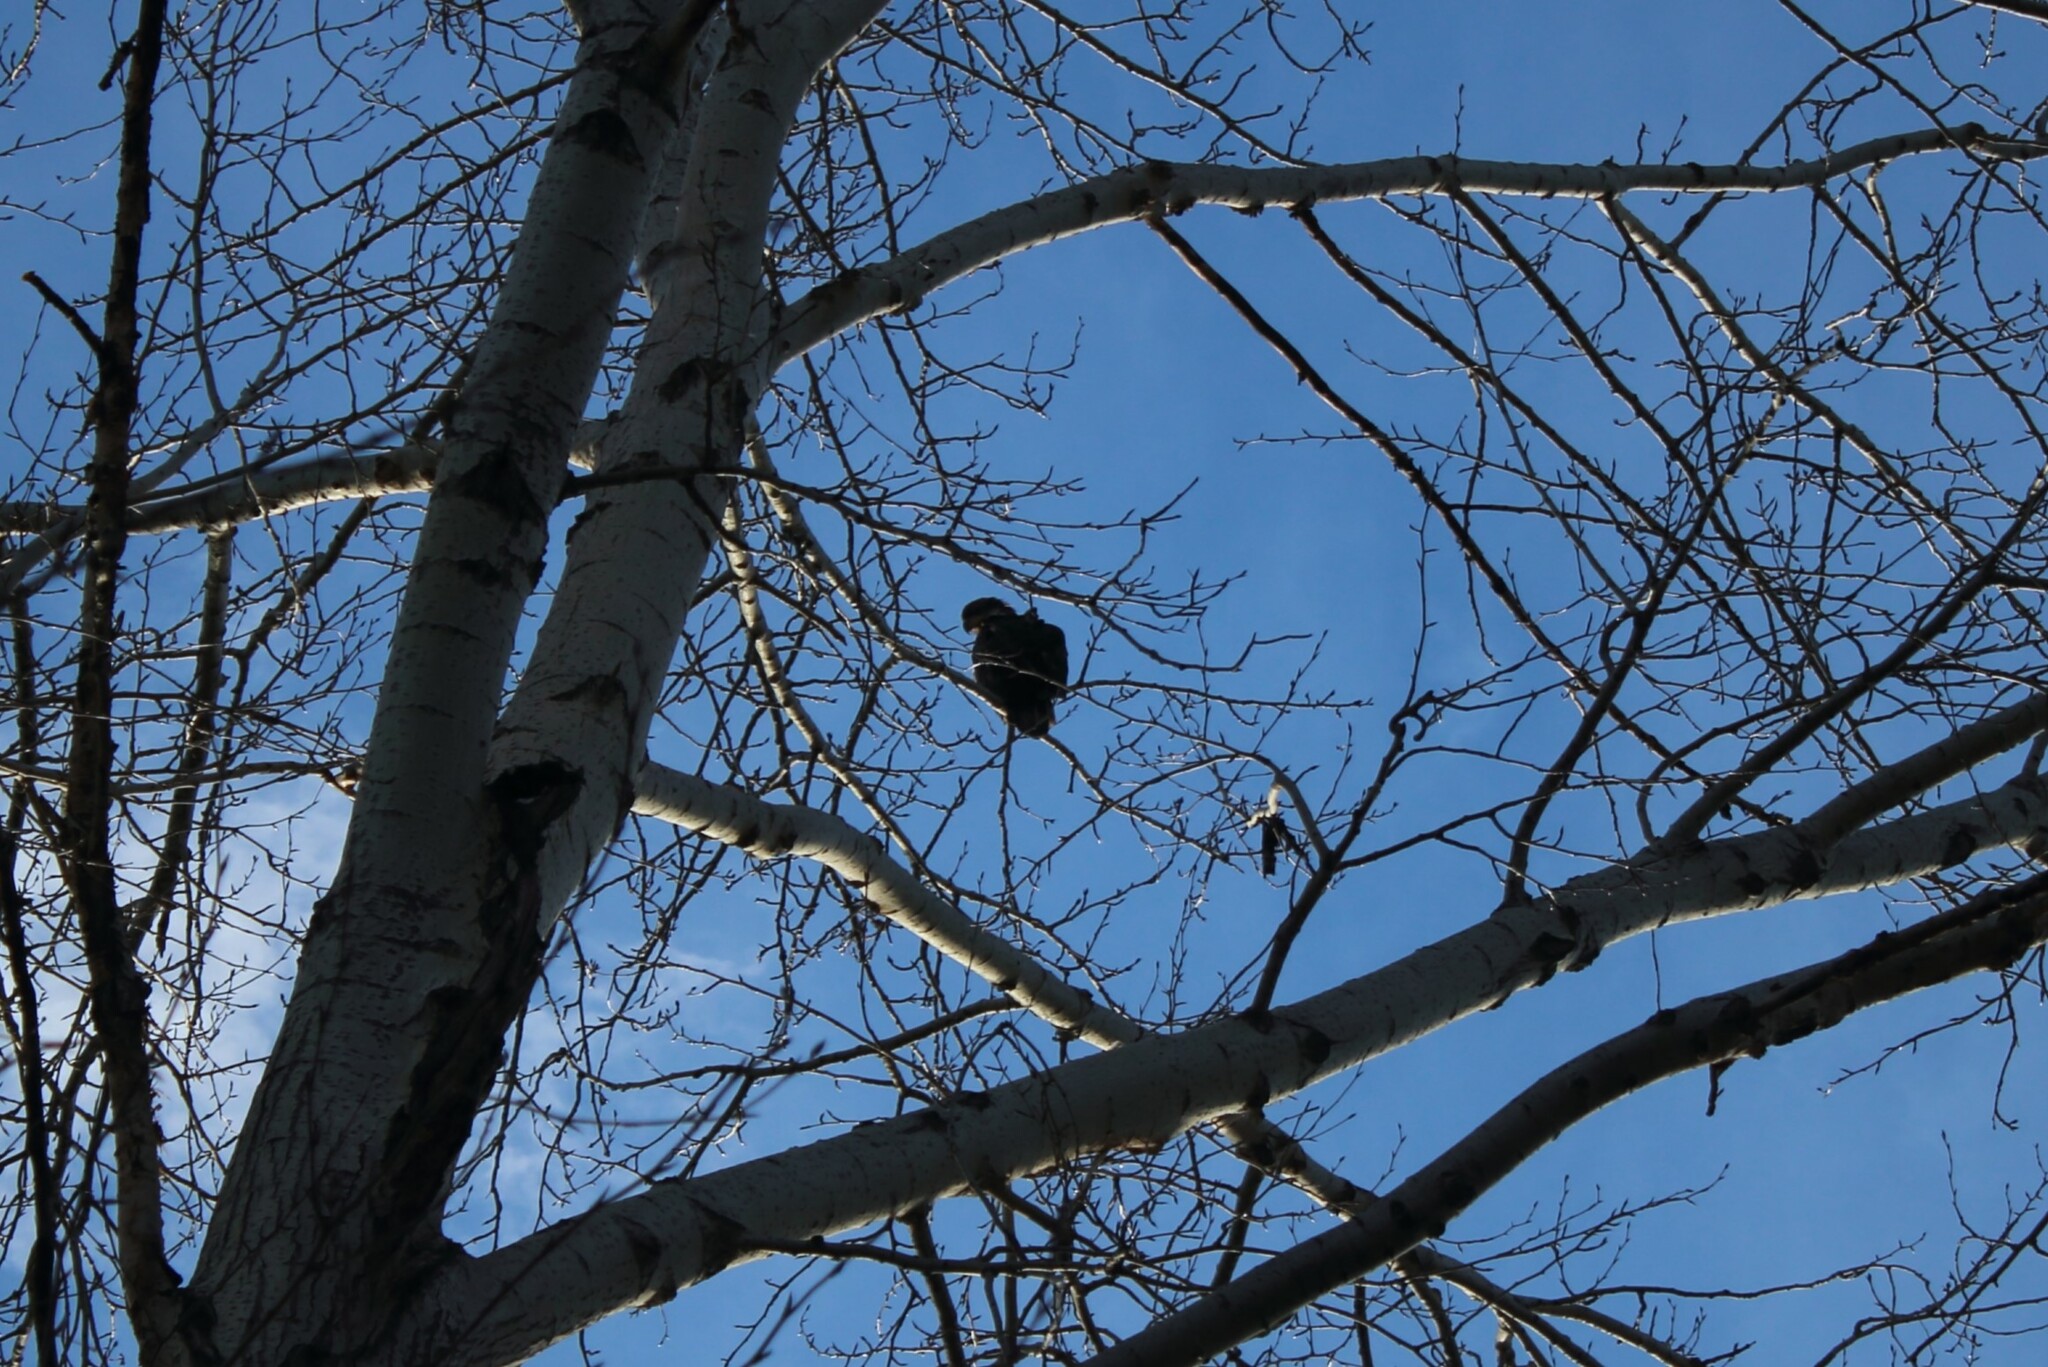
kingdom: Animalia
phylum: Chordata
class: Aves
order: Accipitriformes
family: Accipitridae
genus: Haliaeetus
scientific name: Haliaeetus leucocephalus
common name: Bald eagle
